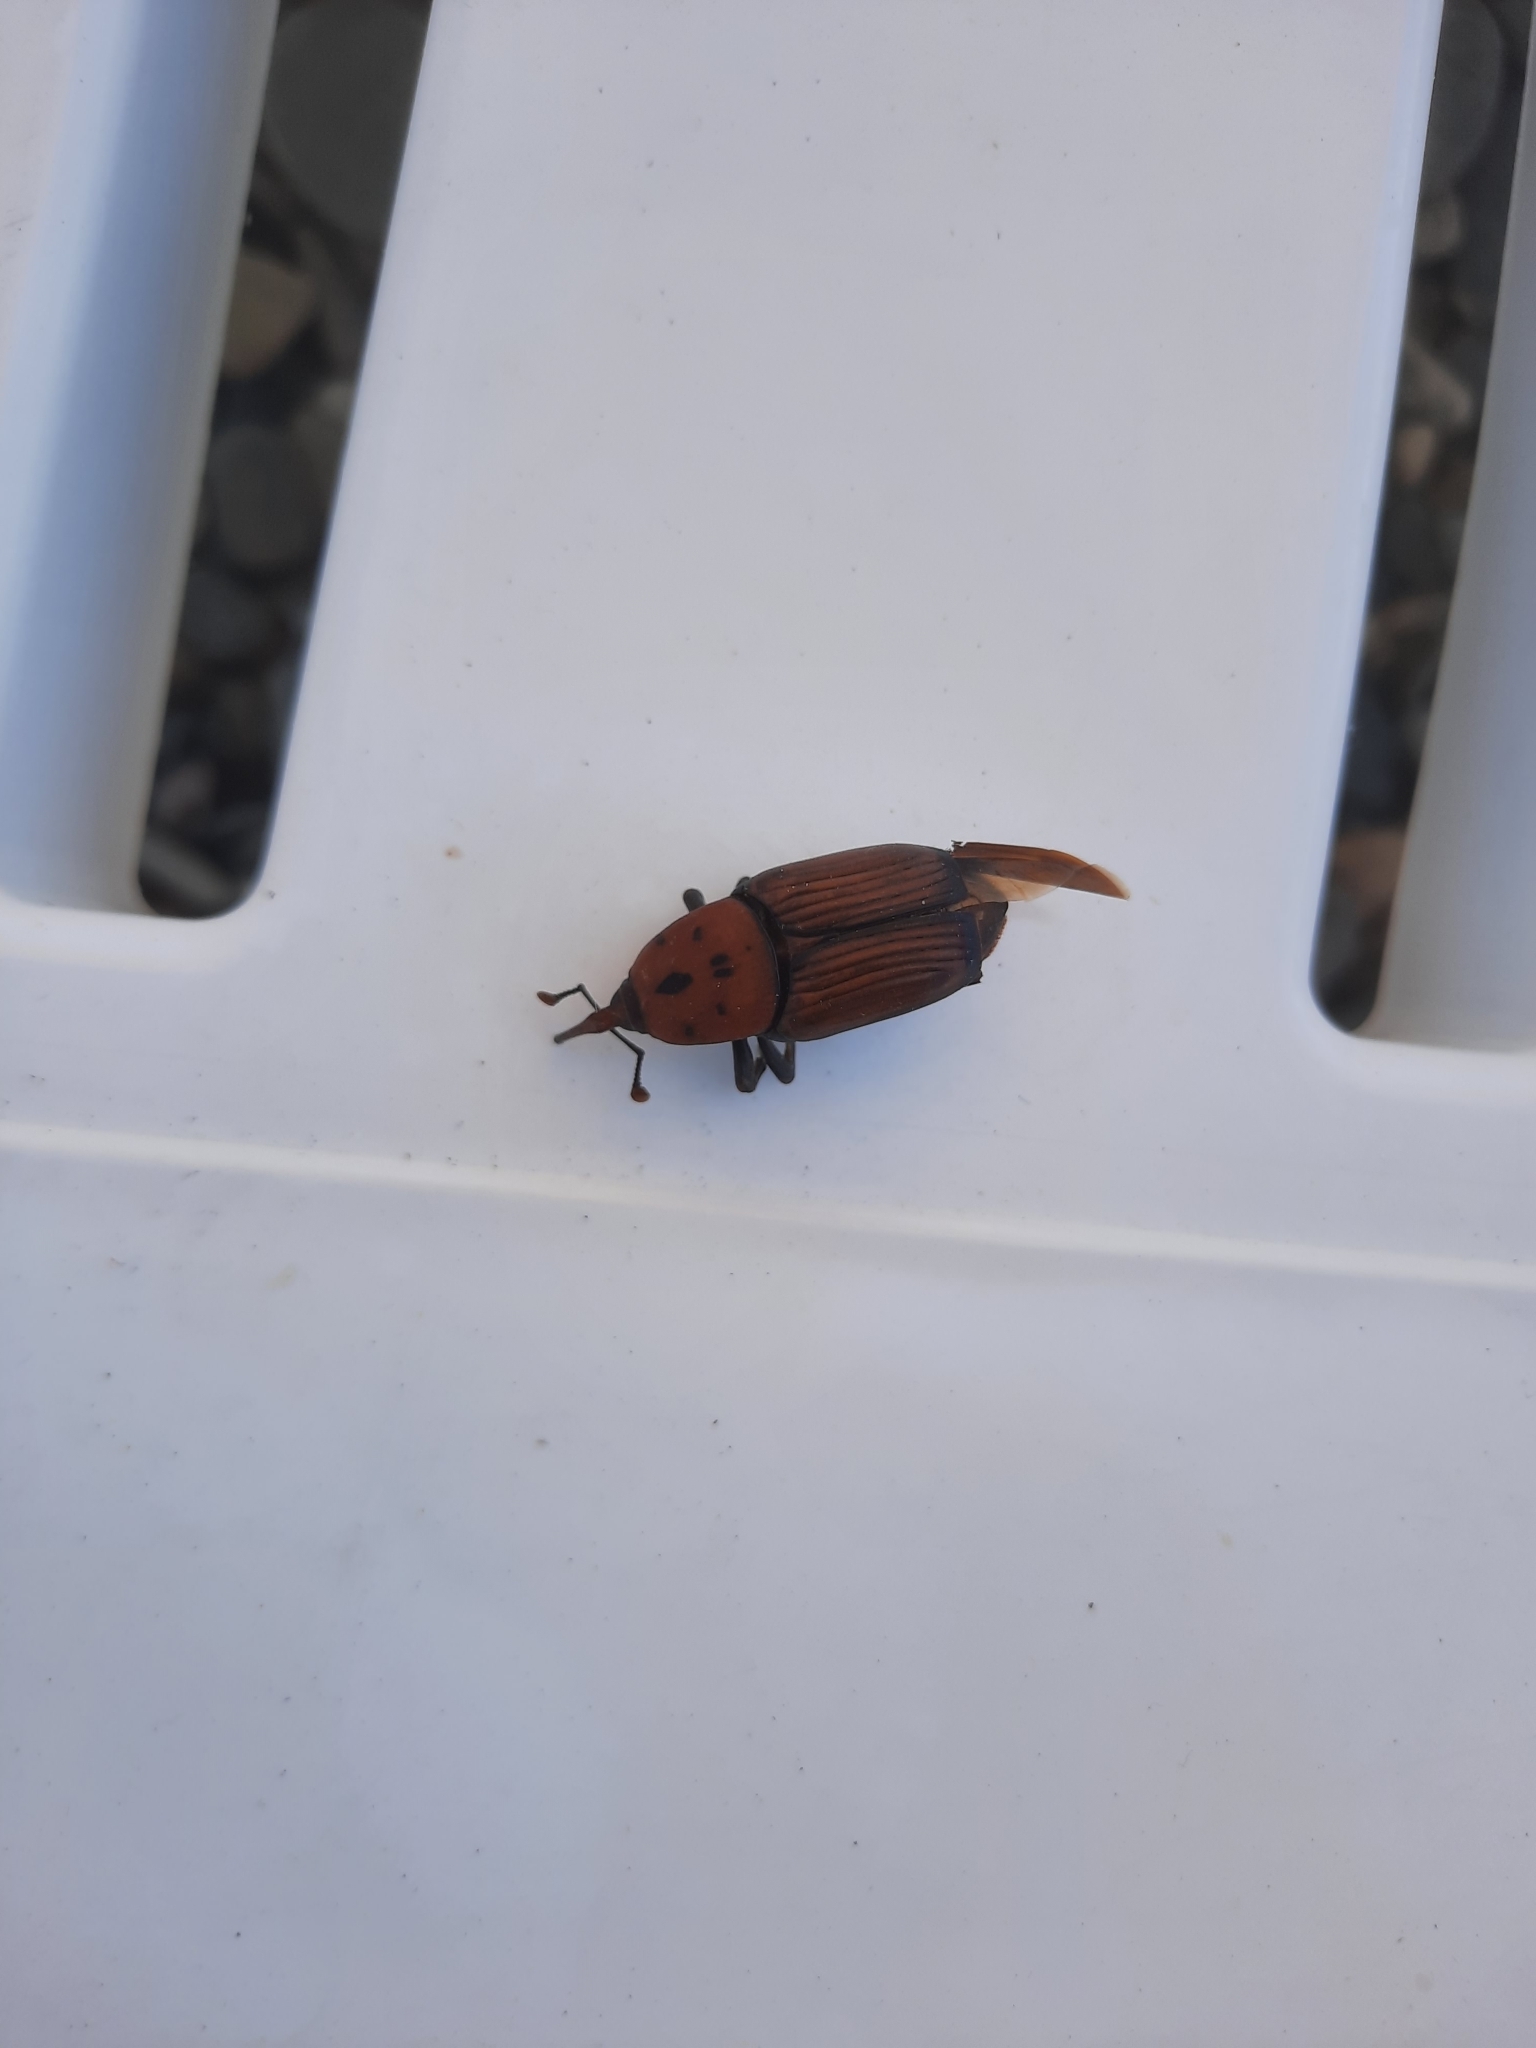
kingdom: Animalia
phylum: Arthropoda
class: Insecta
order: Coleoptera
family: Dryophthoridae
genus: Rhynchophorus
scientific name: Rhynchophorus ferrugineus
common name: Red palm weevil
